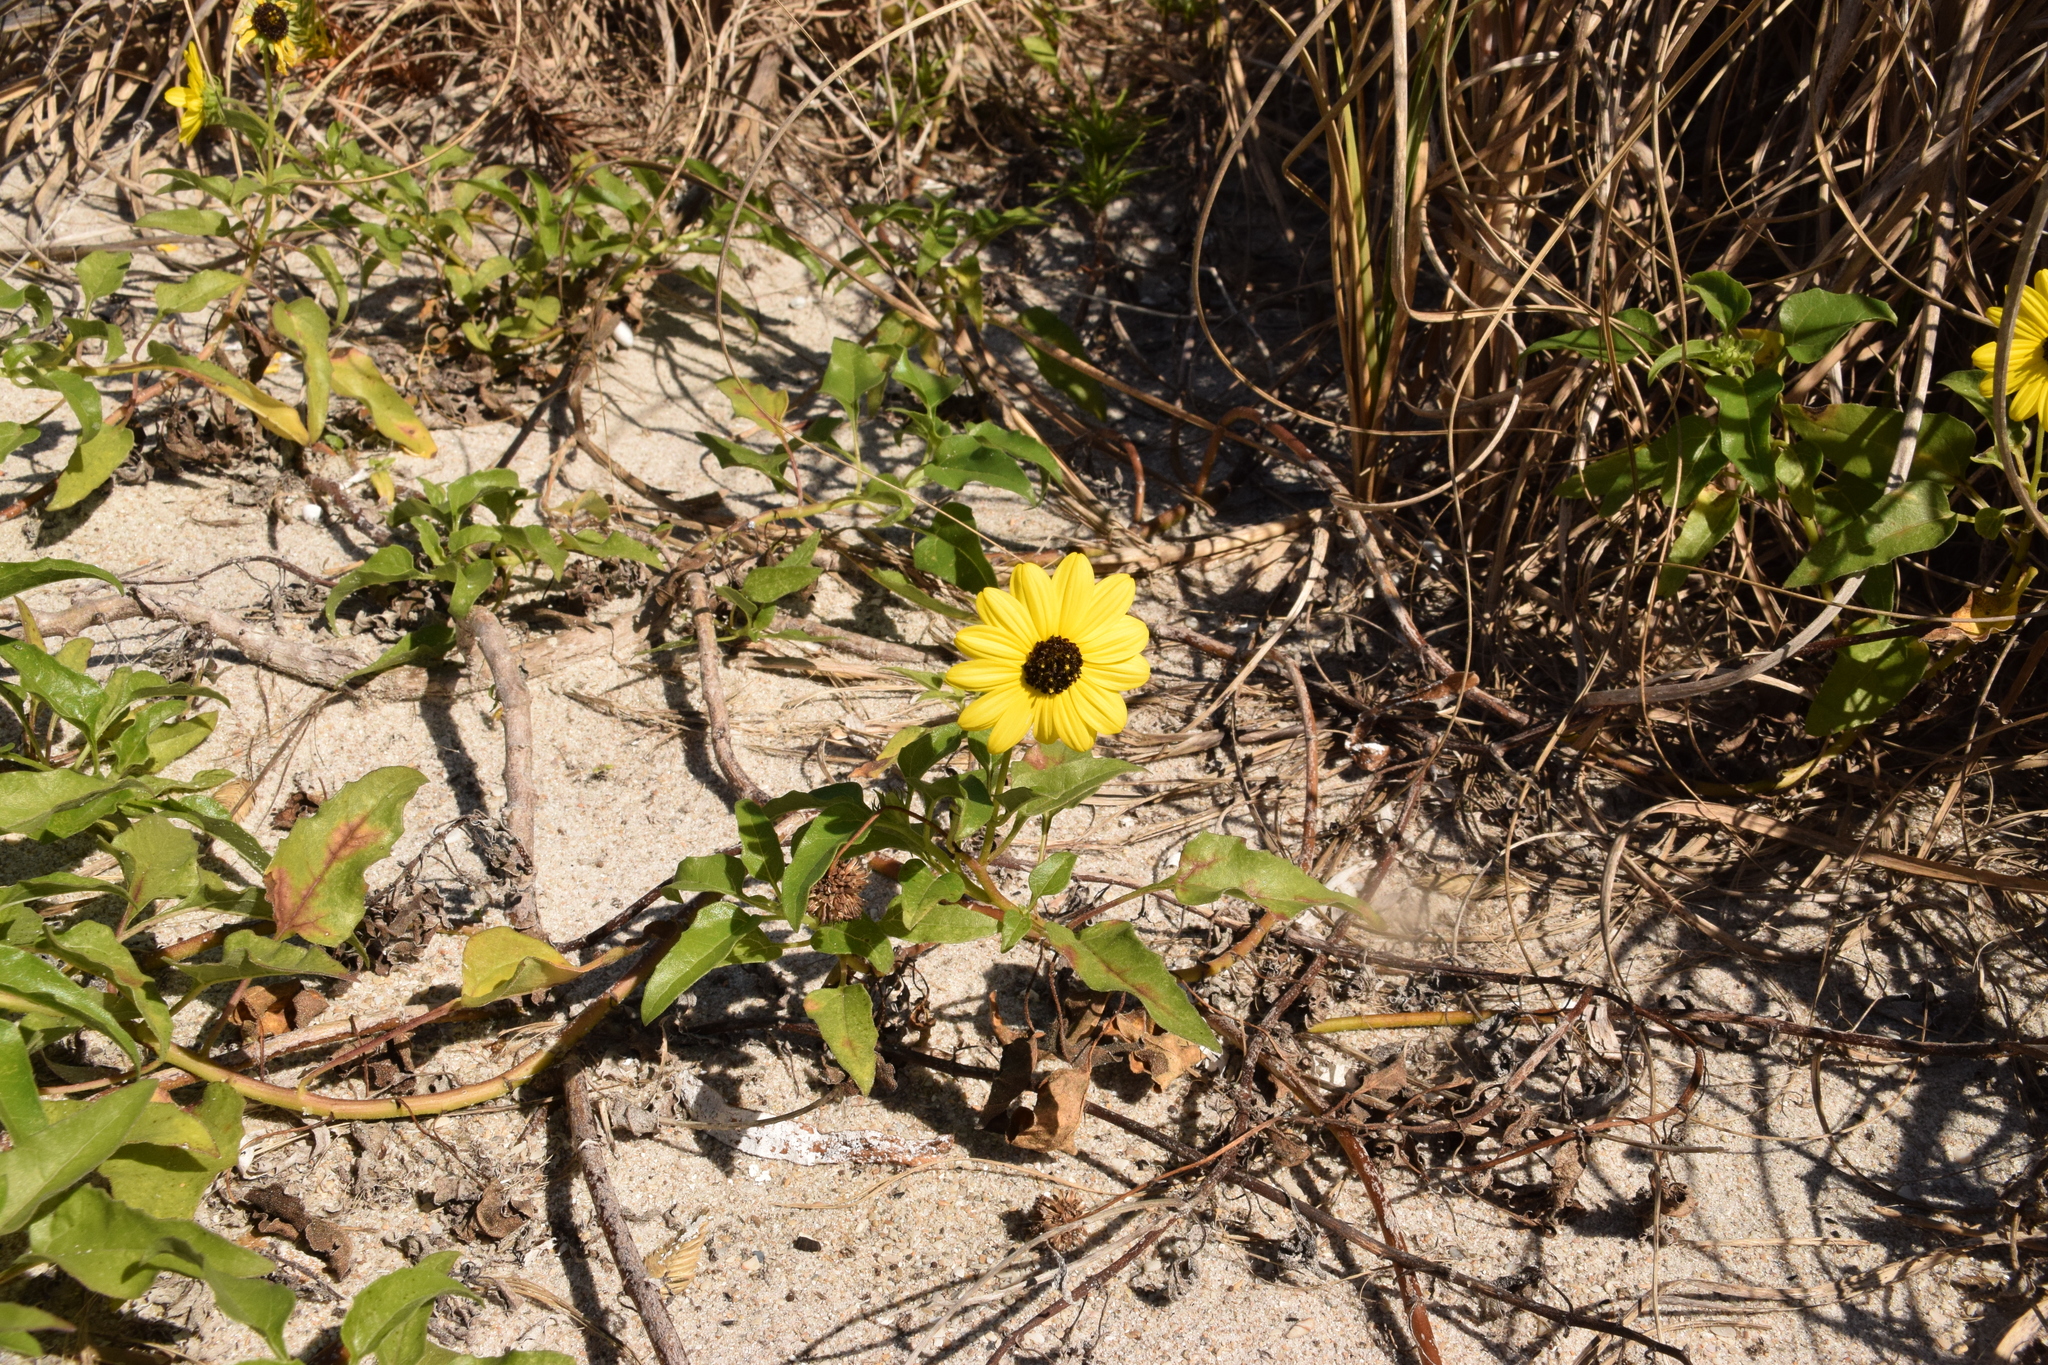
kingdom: Plantae
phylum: Tracheophyta
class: Magnoliopsida
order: Asterales
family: Asteraceae
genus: Helianthus
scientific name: Helianthus debilis
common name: Weak sunflower
